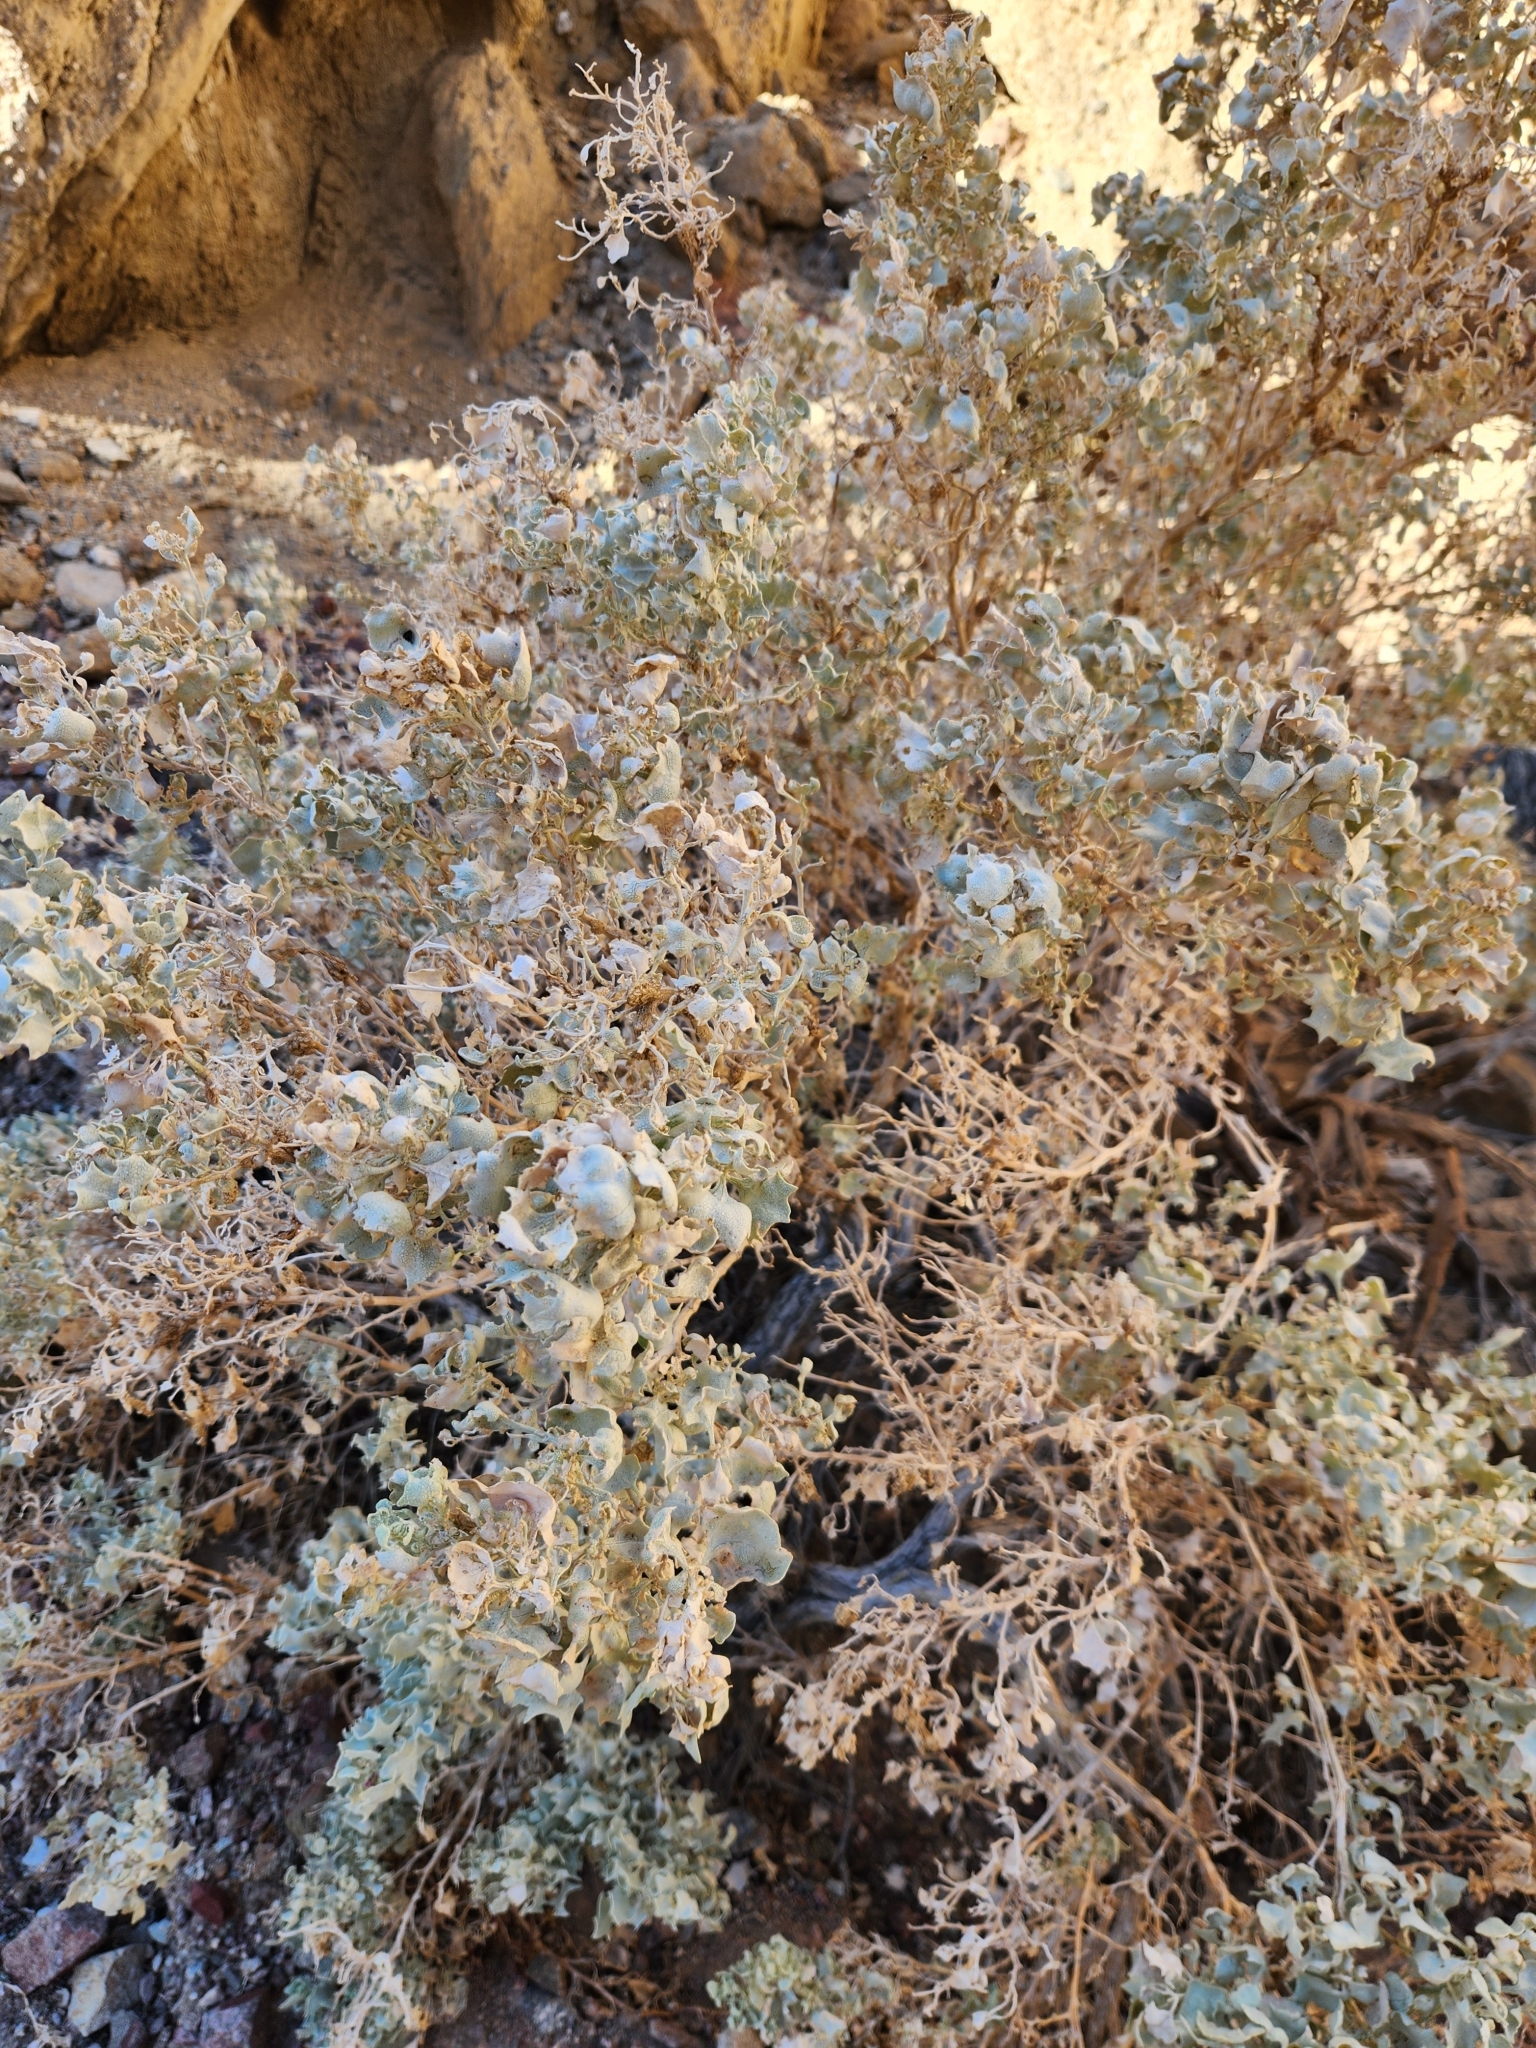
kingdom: Plantae
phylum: Tracheophyta
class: Magnoliopsida
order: Caryophyllales
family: Amaranthaceae
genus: Atriplex
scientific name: Atriplex hymenelytra
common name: Desert-holly
